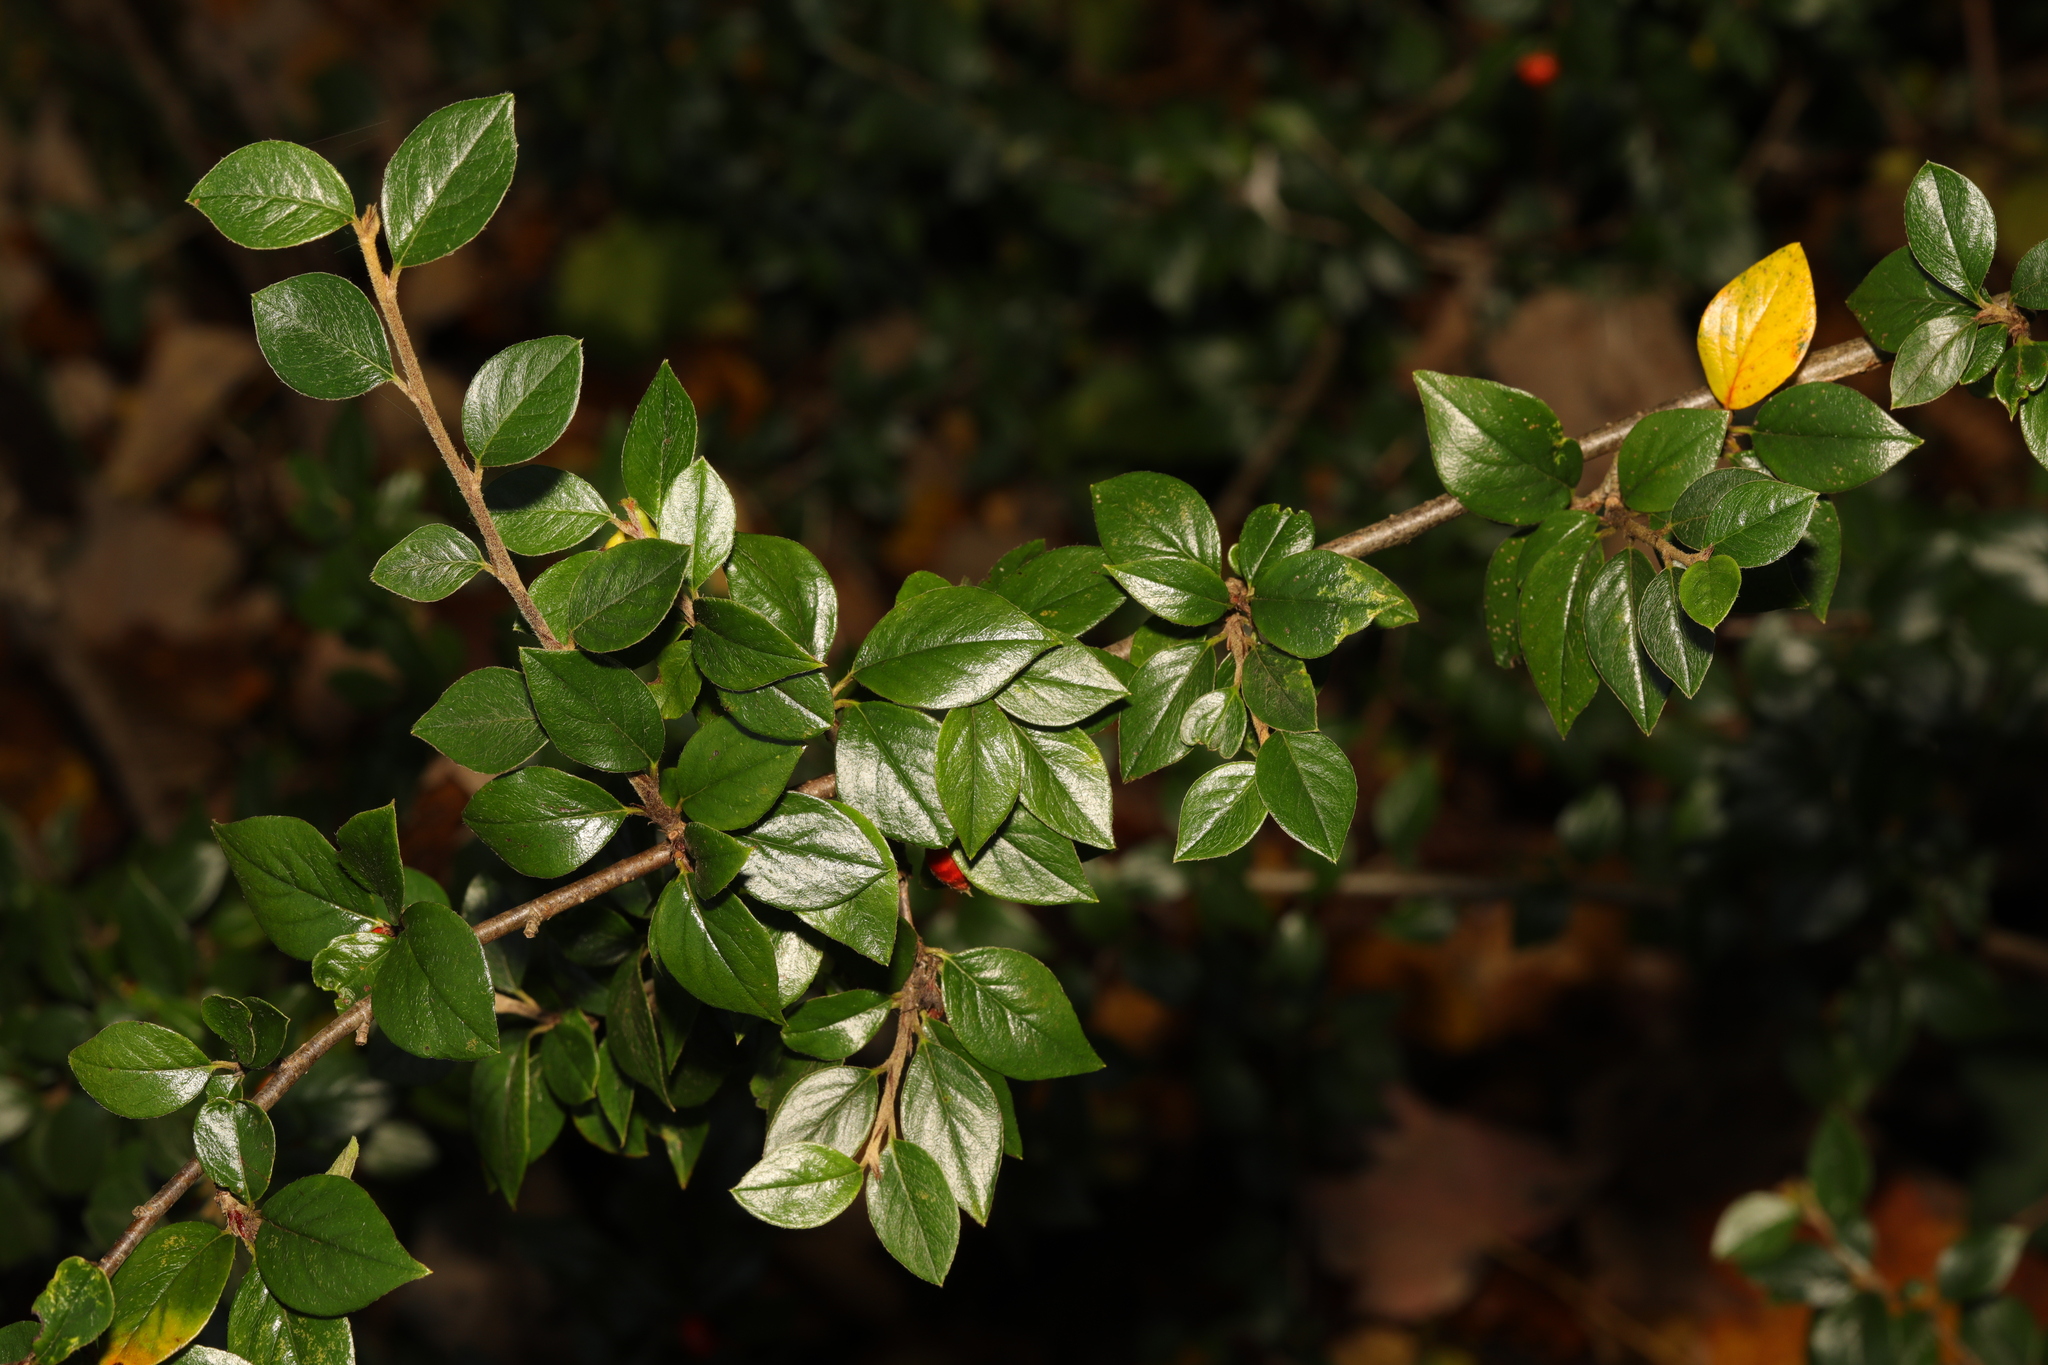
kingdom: Plantae
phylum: Tracheophyta
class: Magnoliopsida
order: Rosales
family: Rosaceae
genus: Cotoneaster
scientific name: Cotoneaster simonsii
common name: Himalayan cotoneaster
